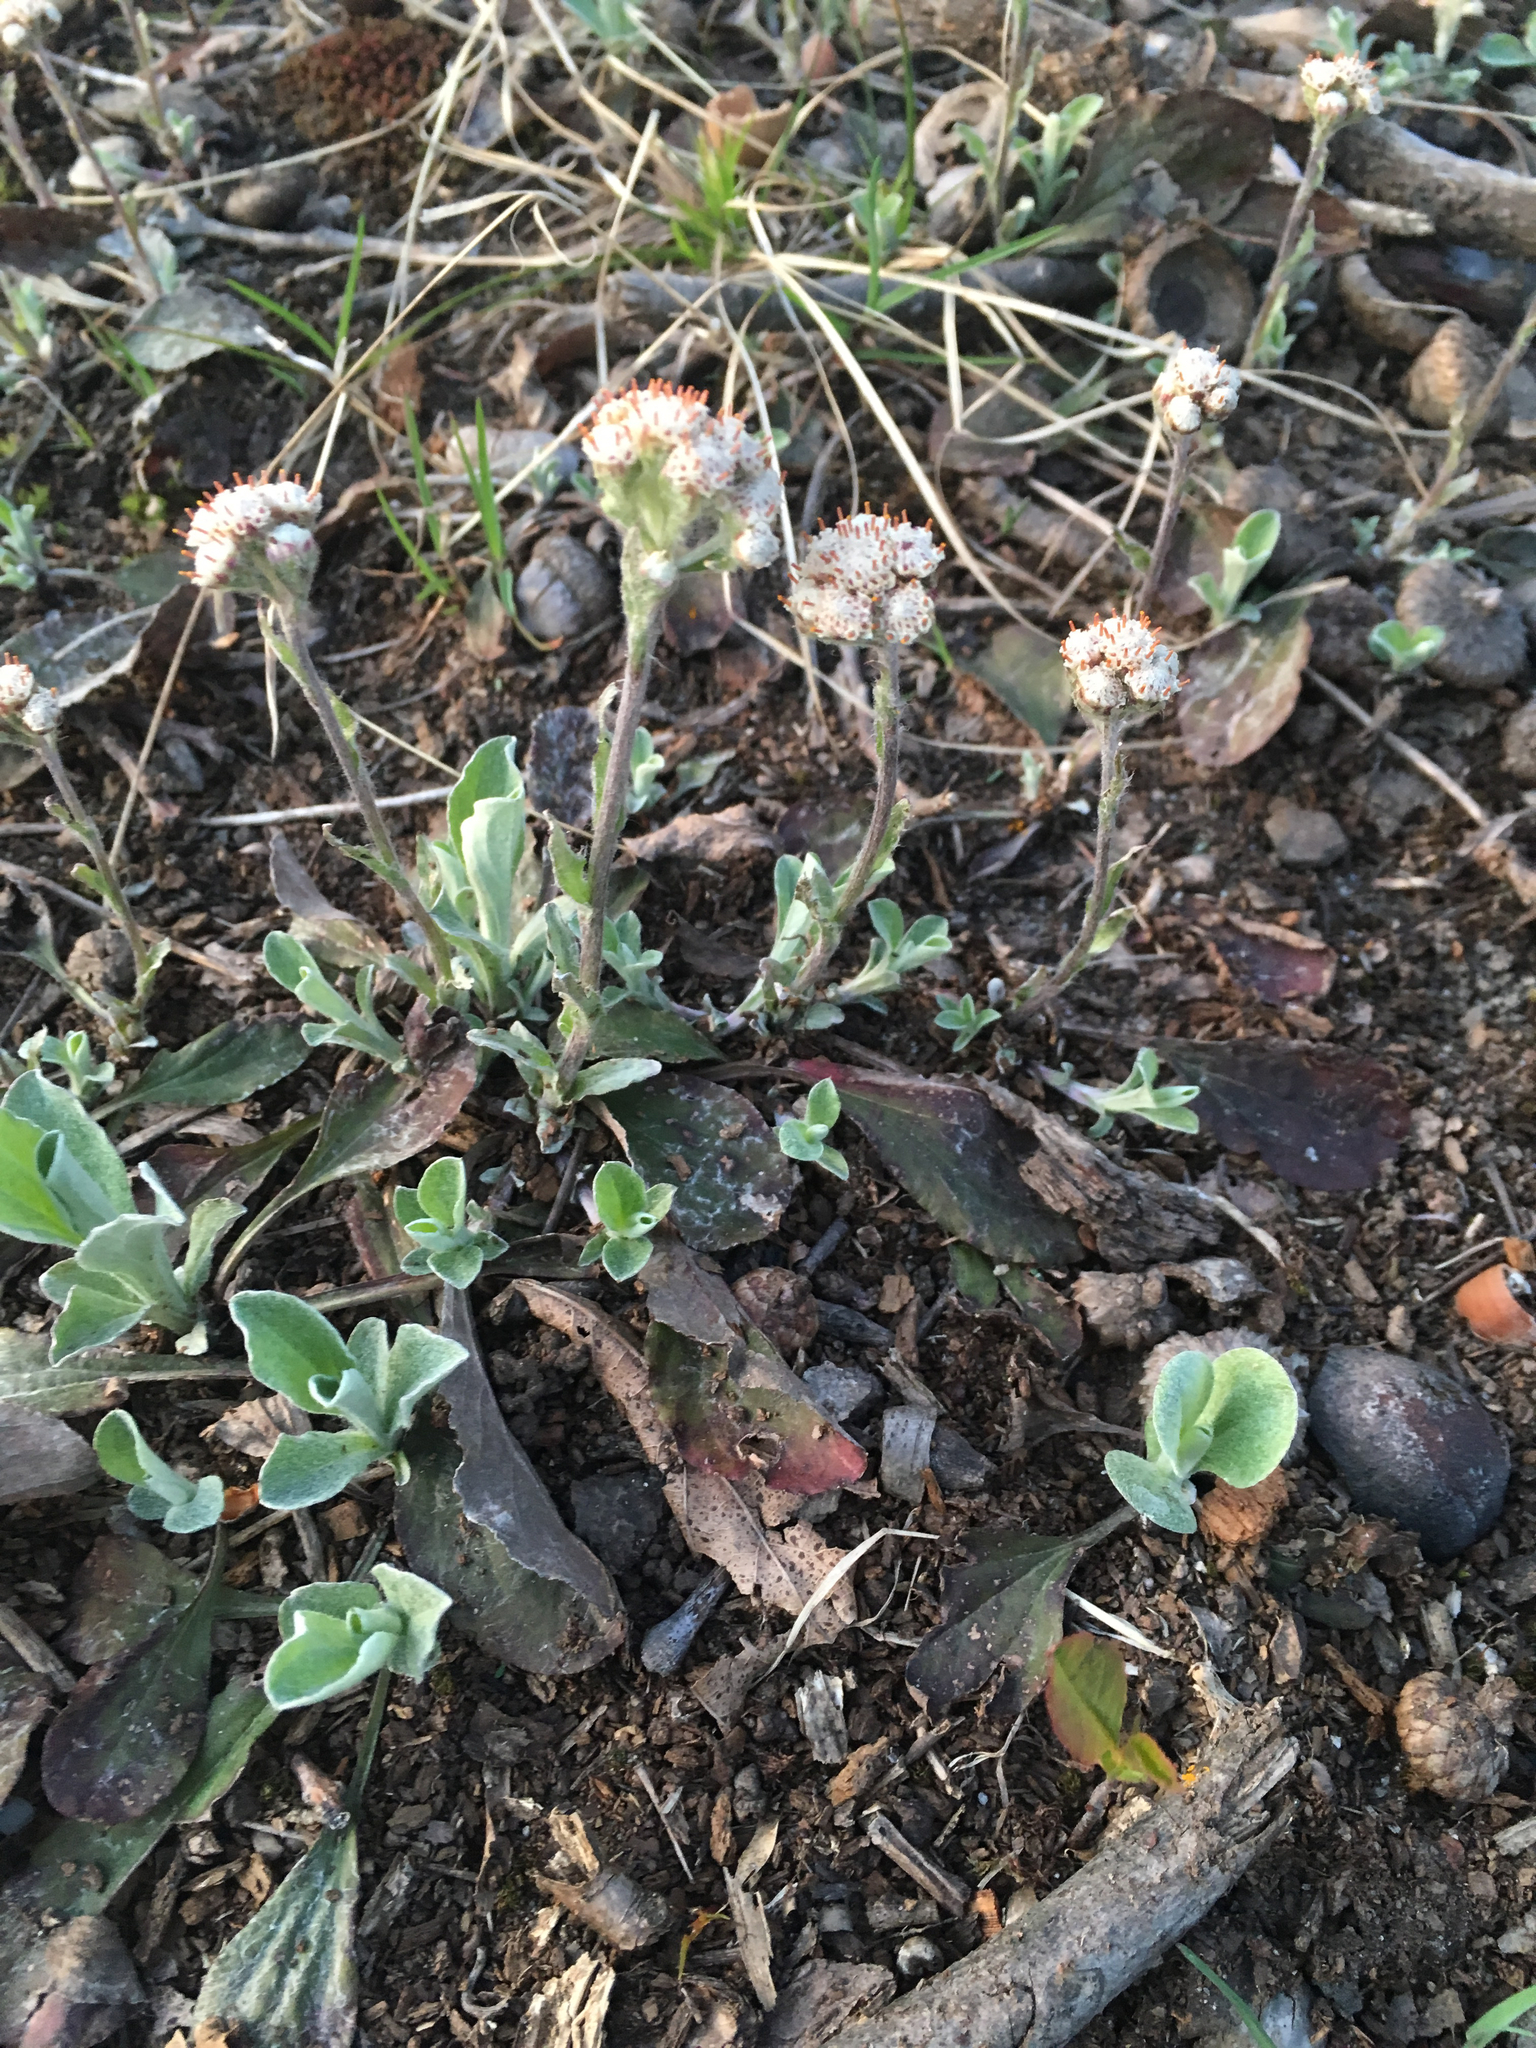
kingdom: Plantae
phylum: Tracheophyta
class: Magnoliopsida
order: Asterales
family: Asteraceae
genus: Antennaria
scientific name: Antennaria plantaginifolia
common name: Plantain-leaved pussytoes
